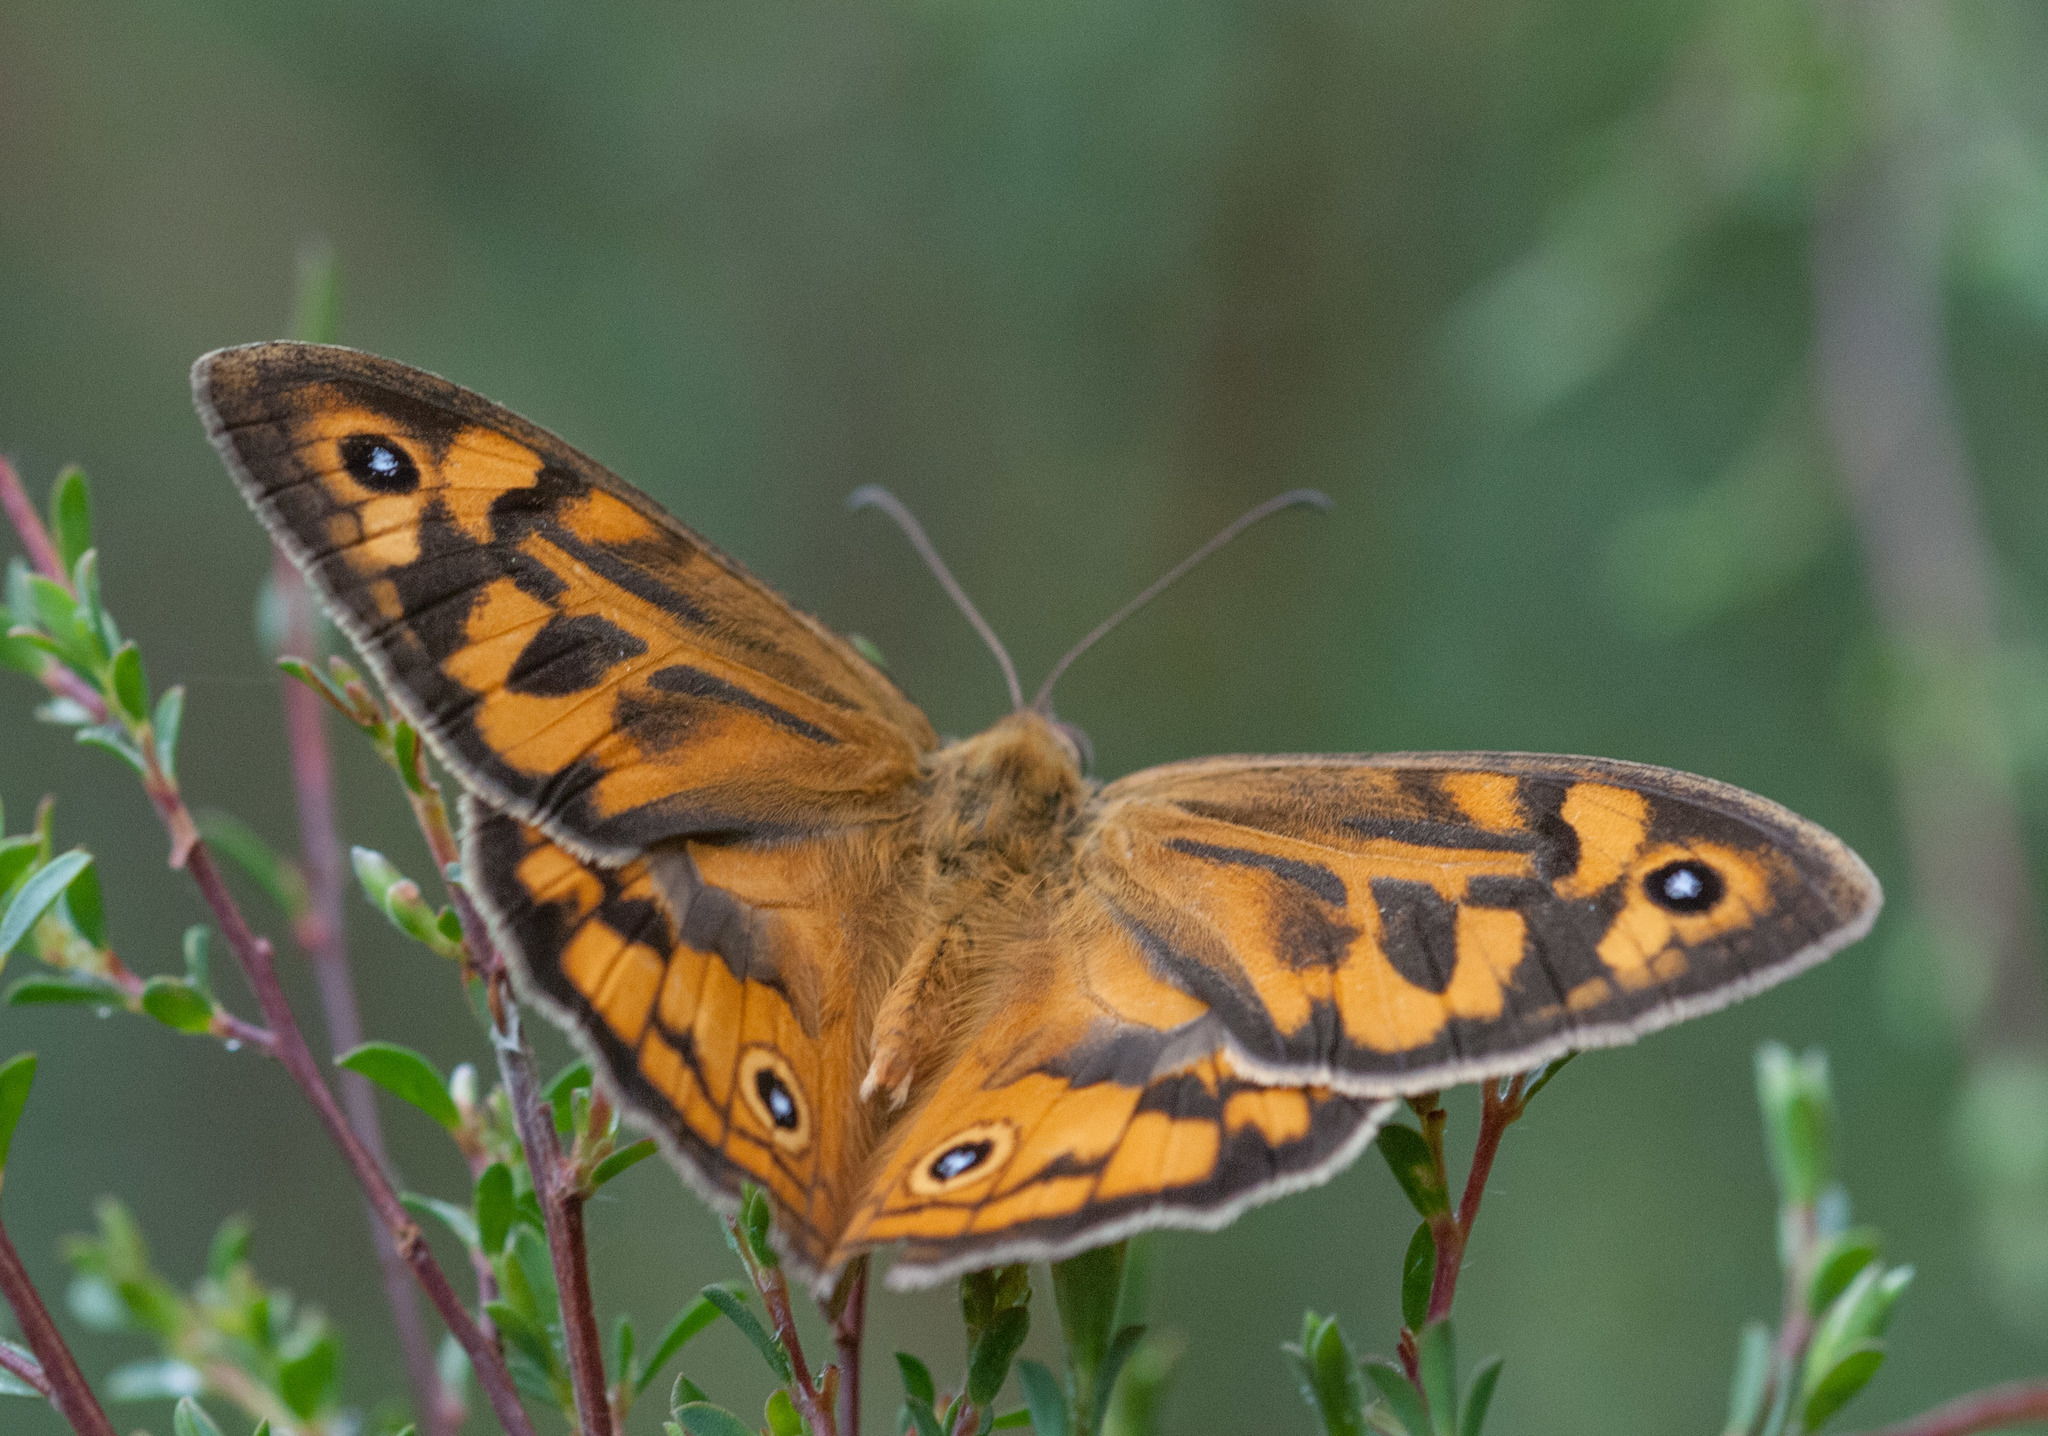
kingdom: Animalia
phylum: Arthropoda
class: Insecta
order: Lepidoptera
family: Nymphalidae
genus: Heteronympha
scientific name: Heteronympha merope
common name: Common brown
